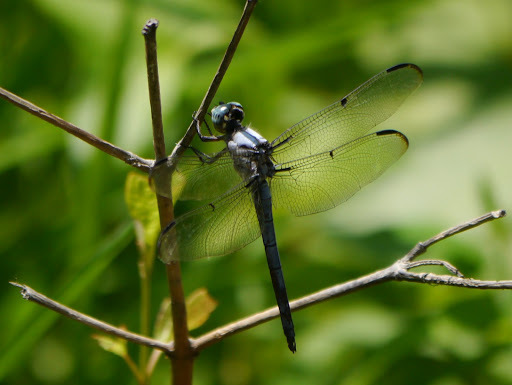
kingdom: Animalia
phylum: Arthropoda
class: Insecta
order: Odonata
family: Libellulidae
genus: Libellula
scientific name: Libellula vibrans
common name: Great blue skimmer
